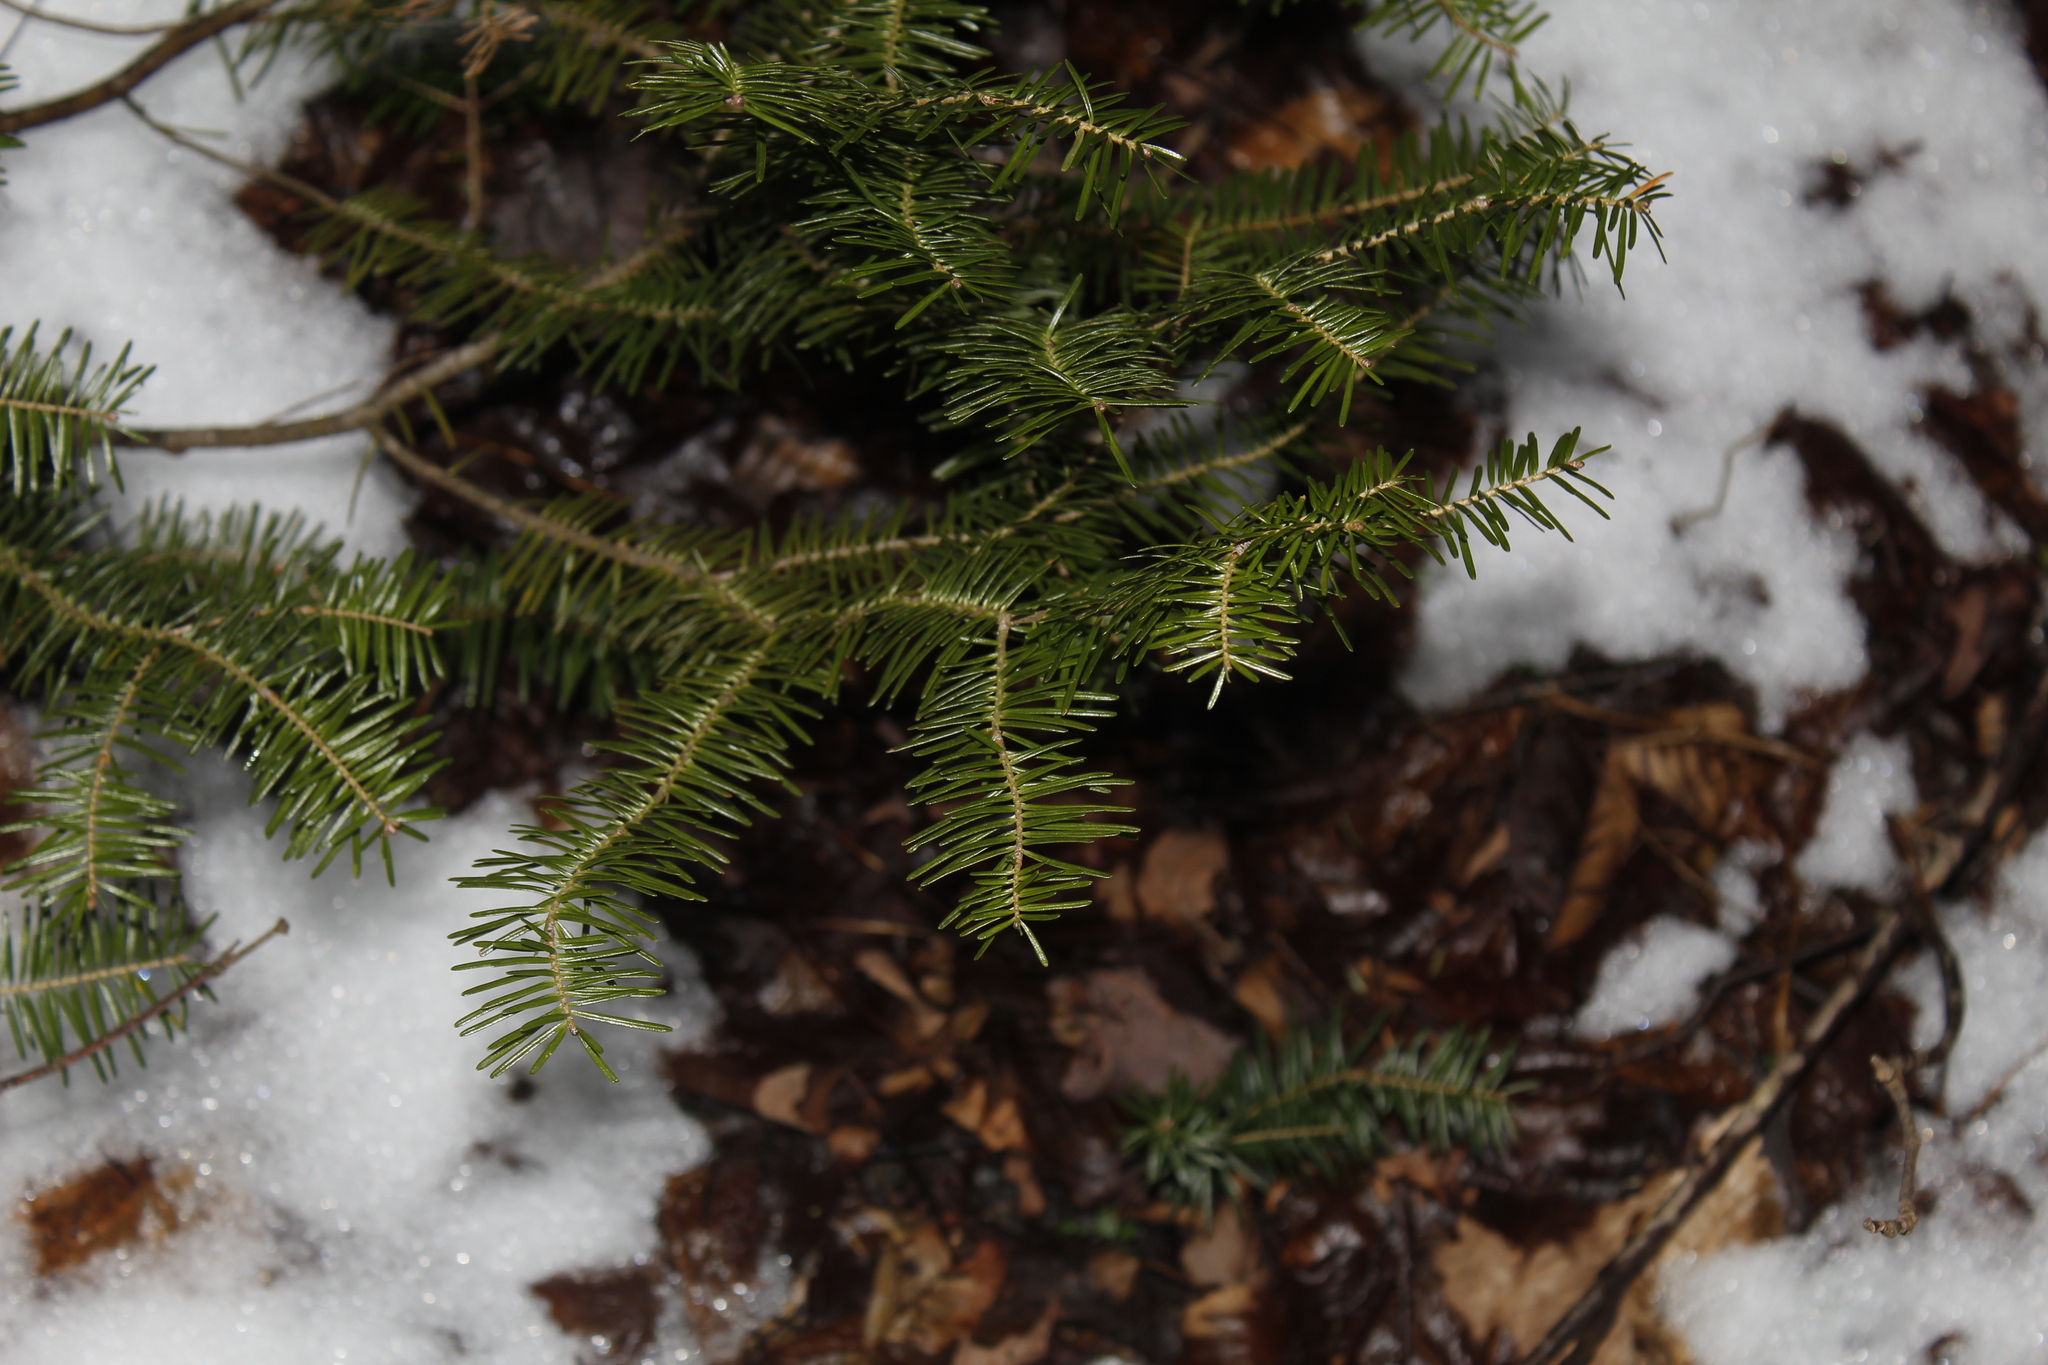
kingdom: Plantae
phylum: Tracheophyta
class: Pinopsida
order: Pinales
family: Pinaceae
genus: Abies
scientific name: Abies balsamea
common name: Balsam fir
